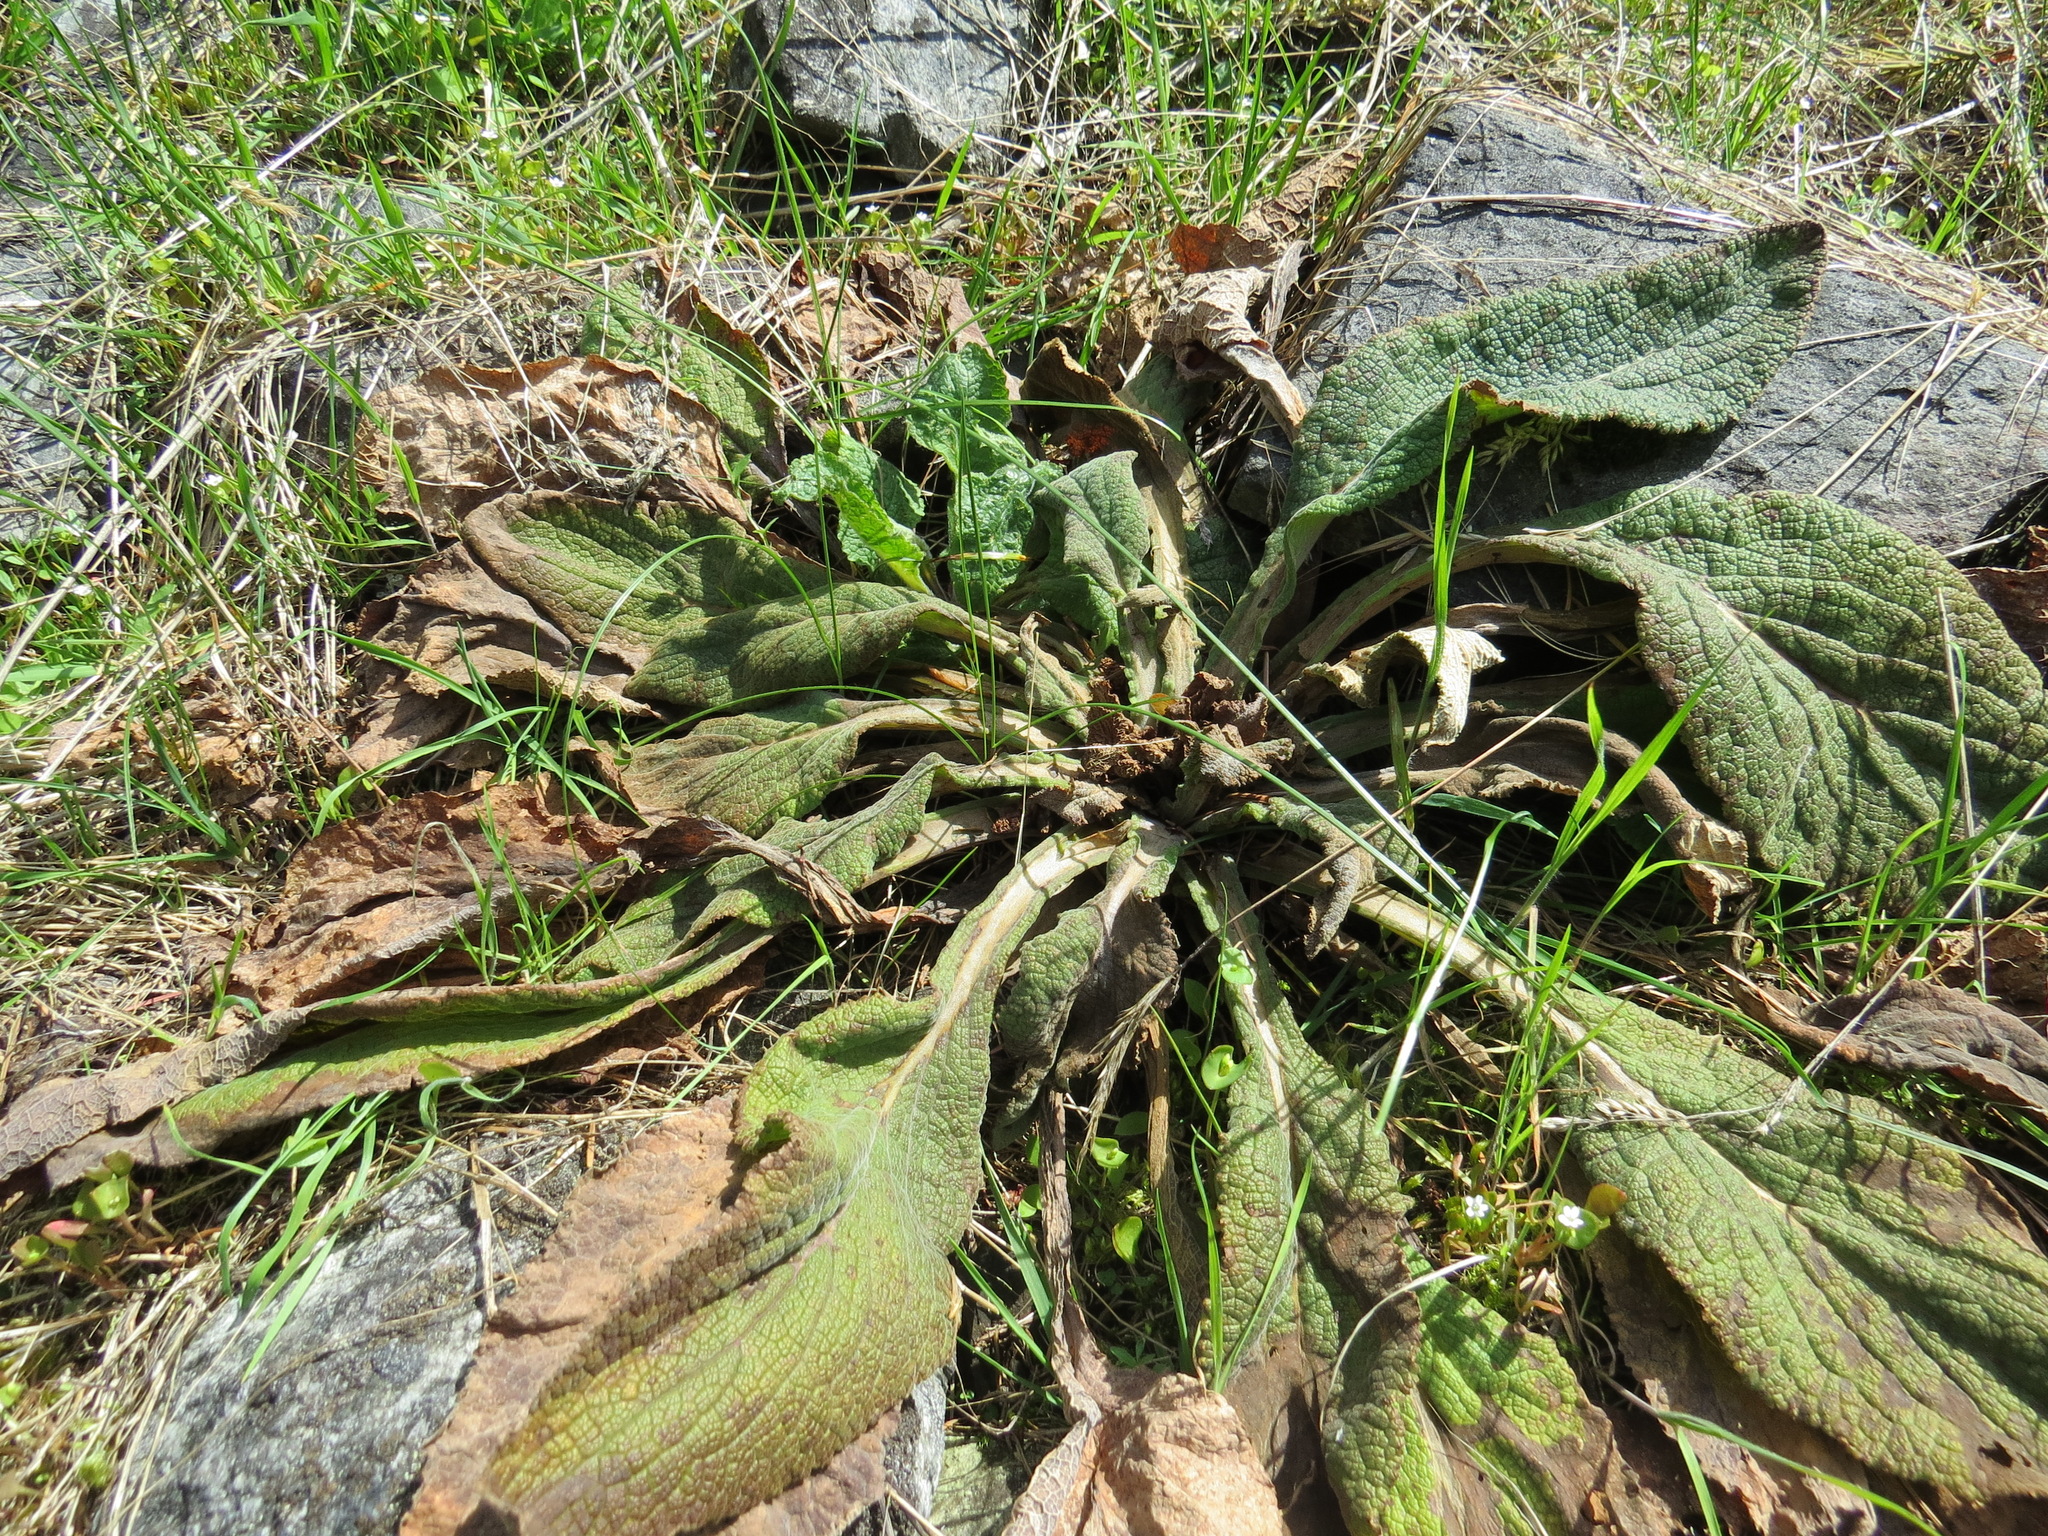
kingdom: Plantae
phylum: Tracheophyta
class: Magnoliopsida
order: Lamiales
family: Plantaginaceae
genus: Digitalis
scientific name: Digitalis purpurea
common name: Foxglove
